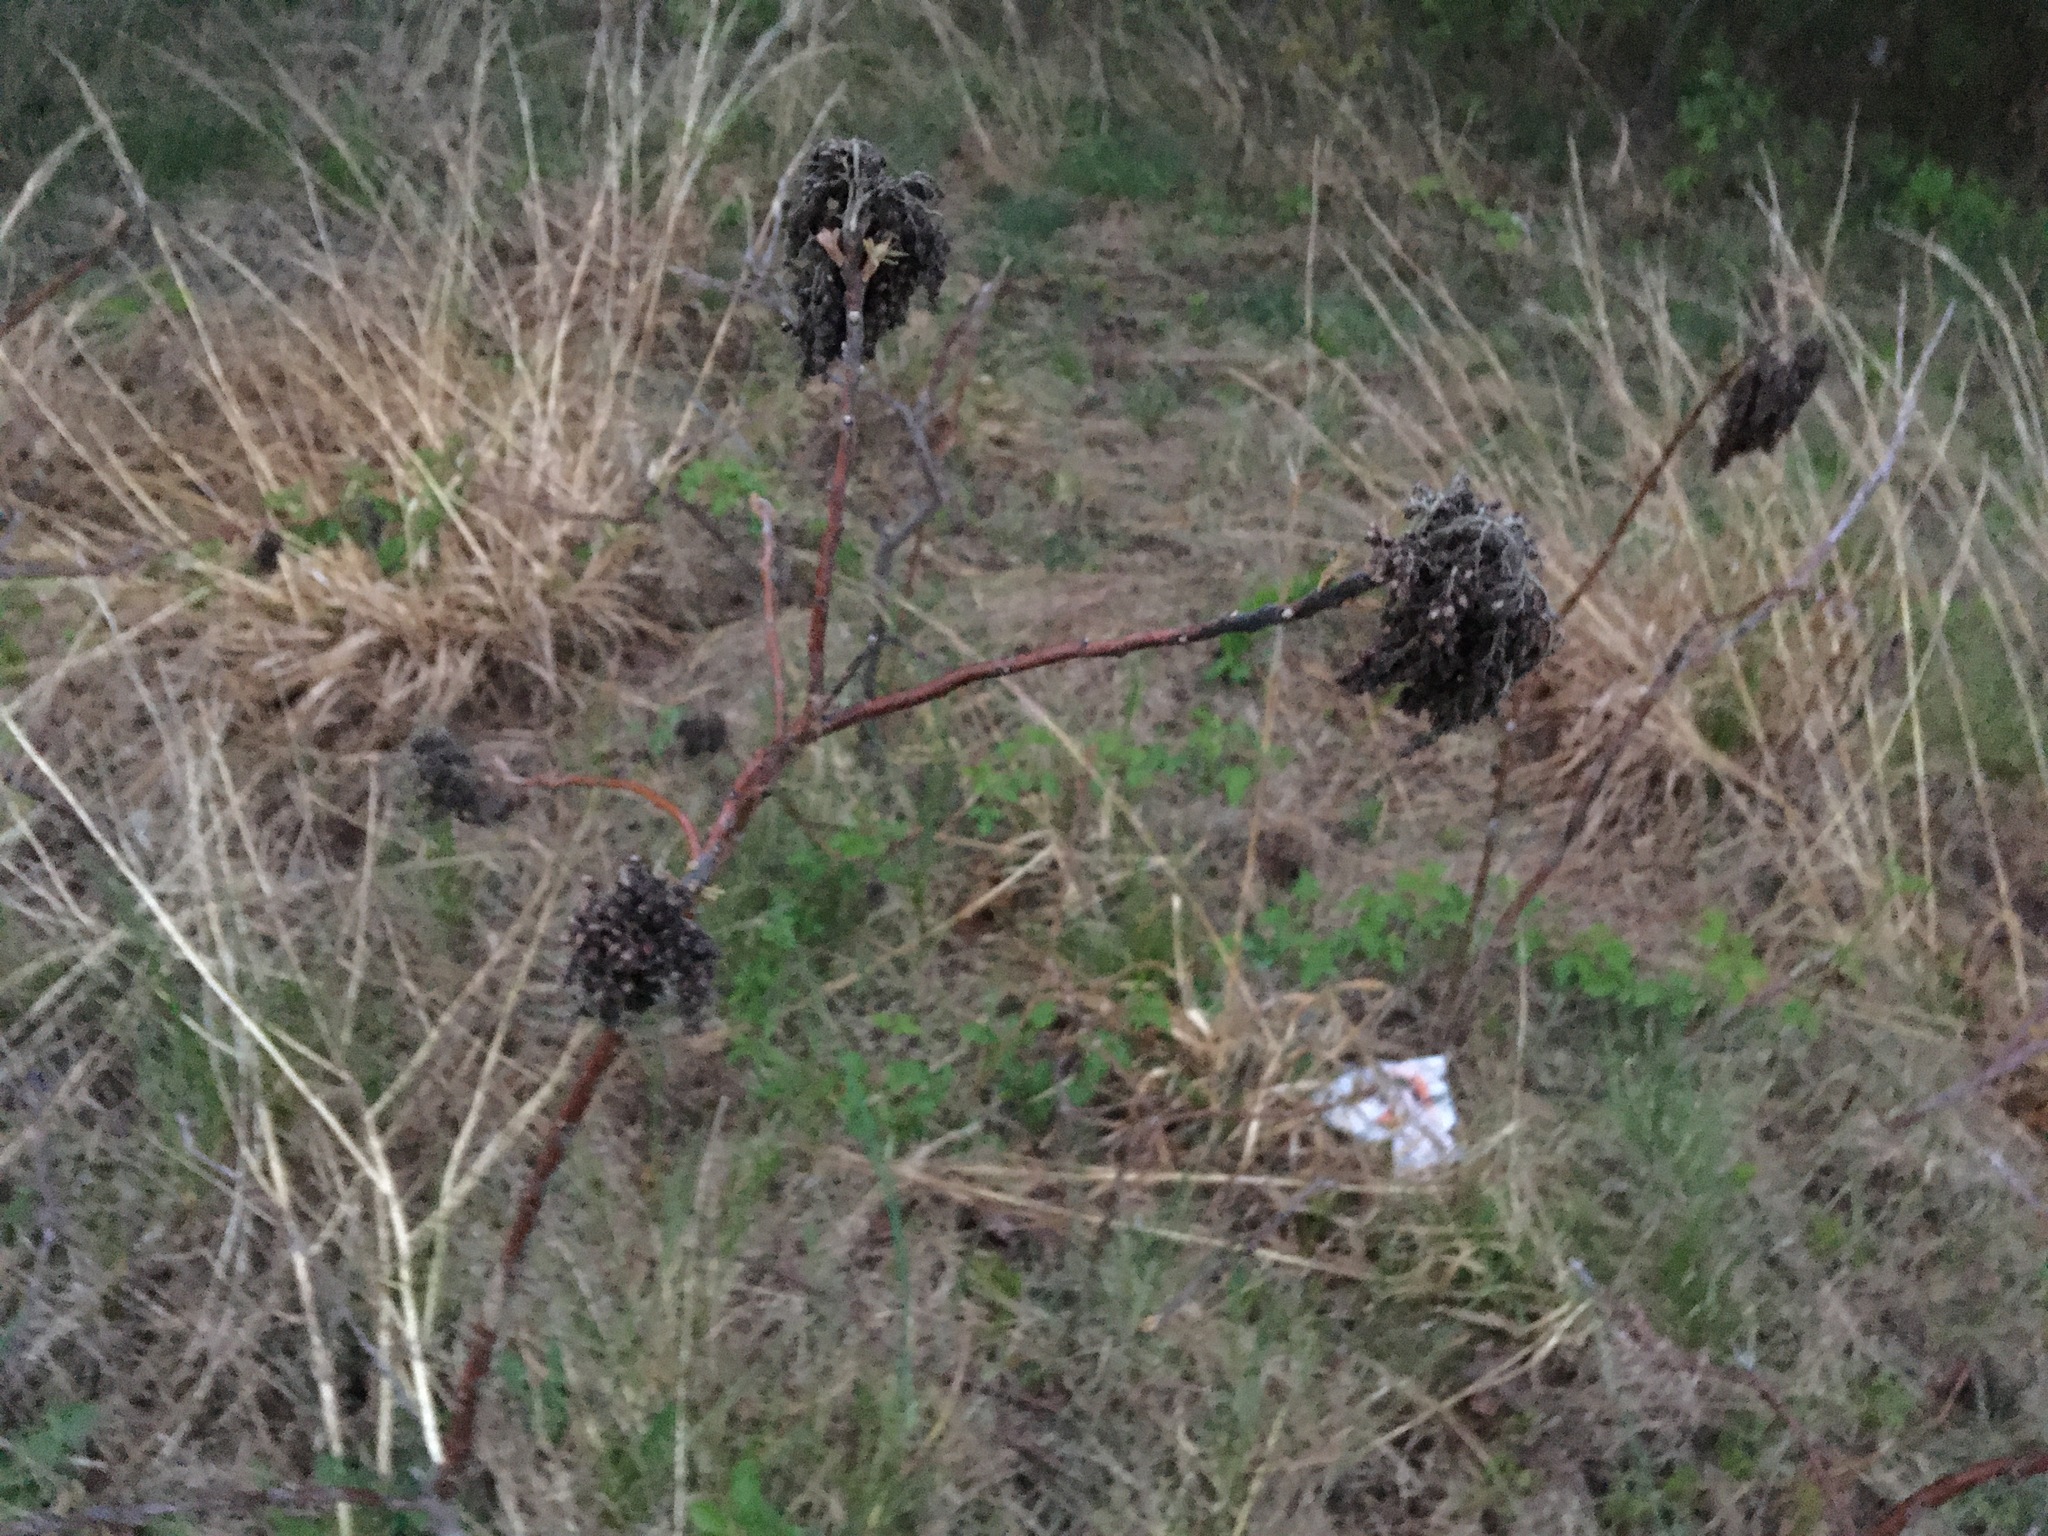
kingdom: Plantae
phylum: Tracheophyta
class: Magnoliopsida
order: Sapindales
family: Anacardiaceae
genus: Rhus
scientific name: Rhus
